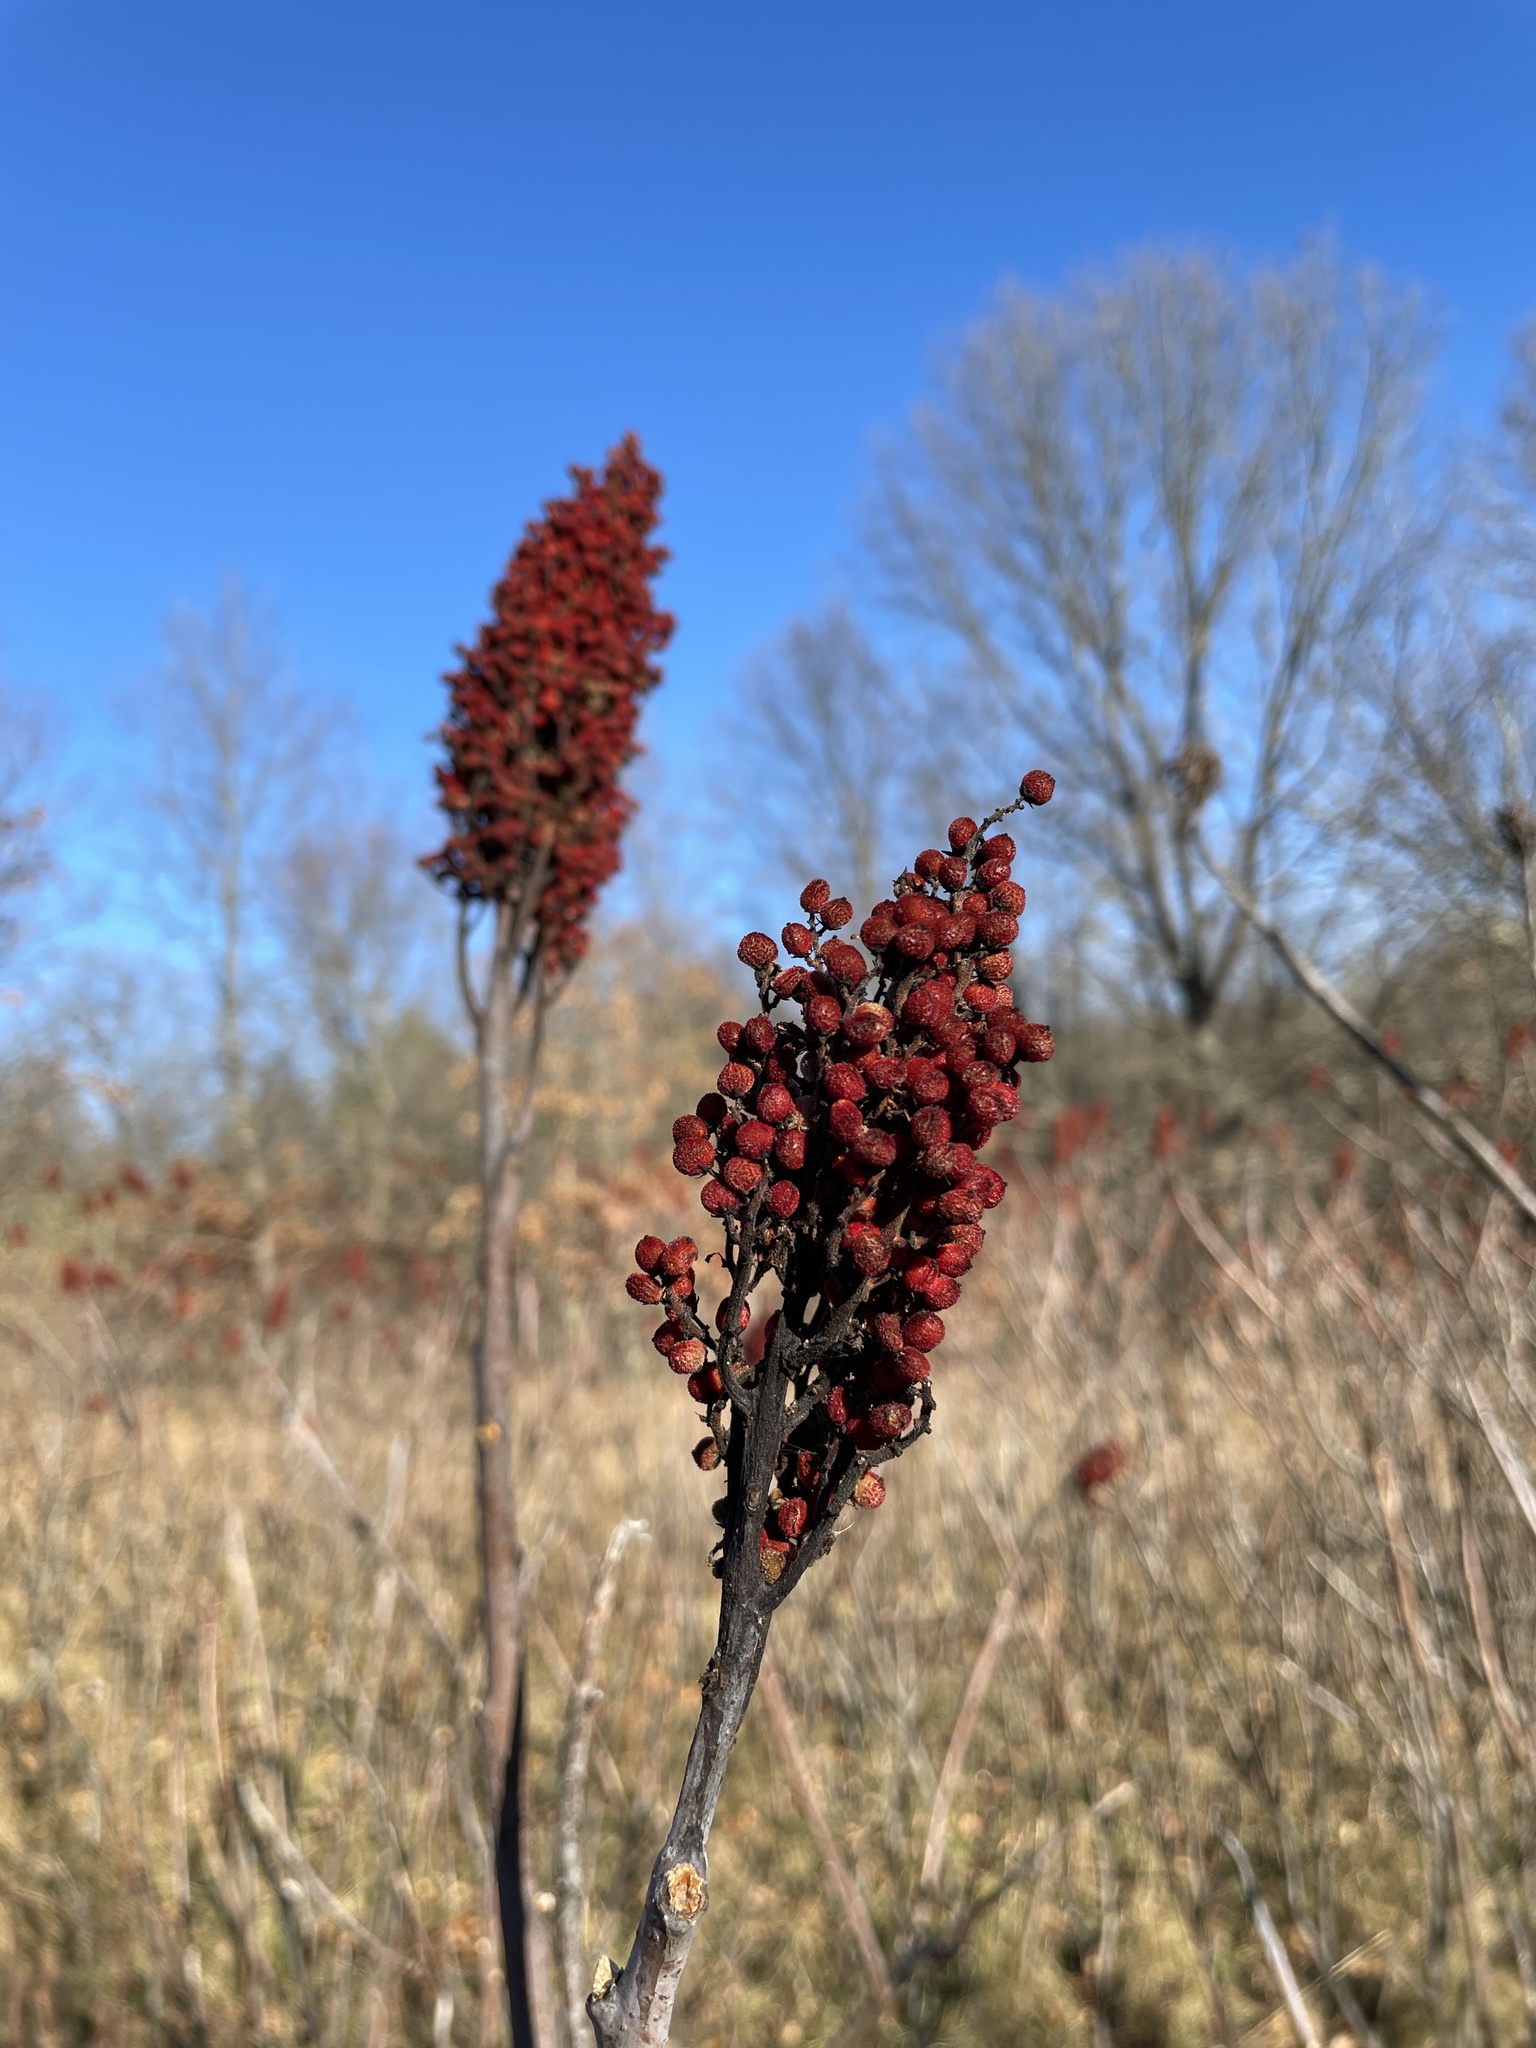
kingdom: Plantae
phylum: Tracheophyta
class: Magnoliopsida
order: Sapindales
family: Anacardiaceae
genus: Rhus
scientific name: Rhus glabra
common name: Scarlet sumac
